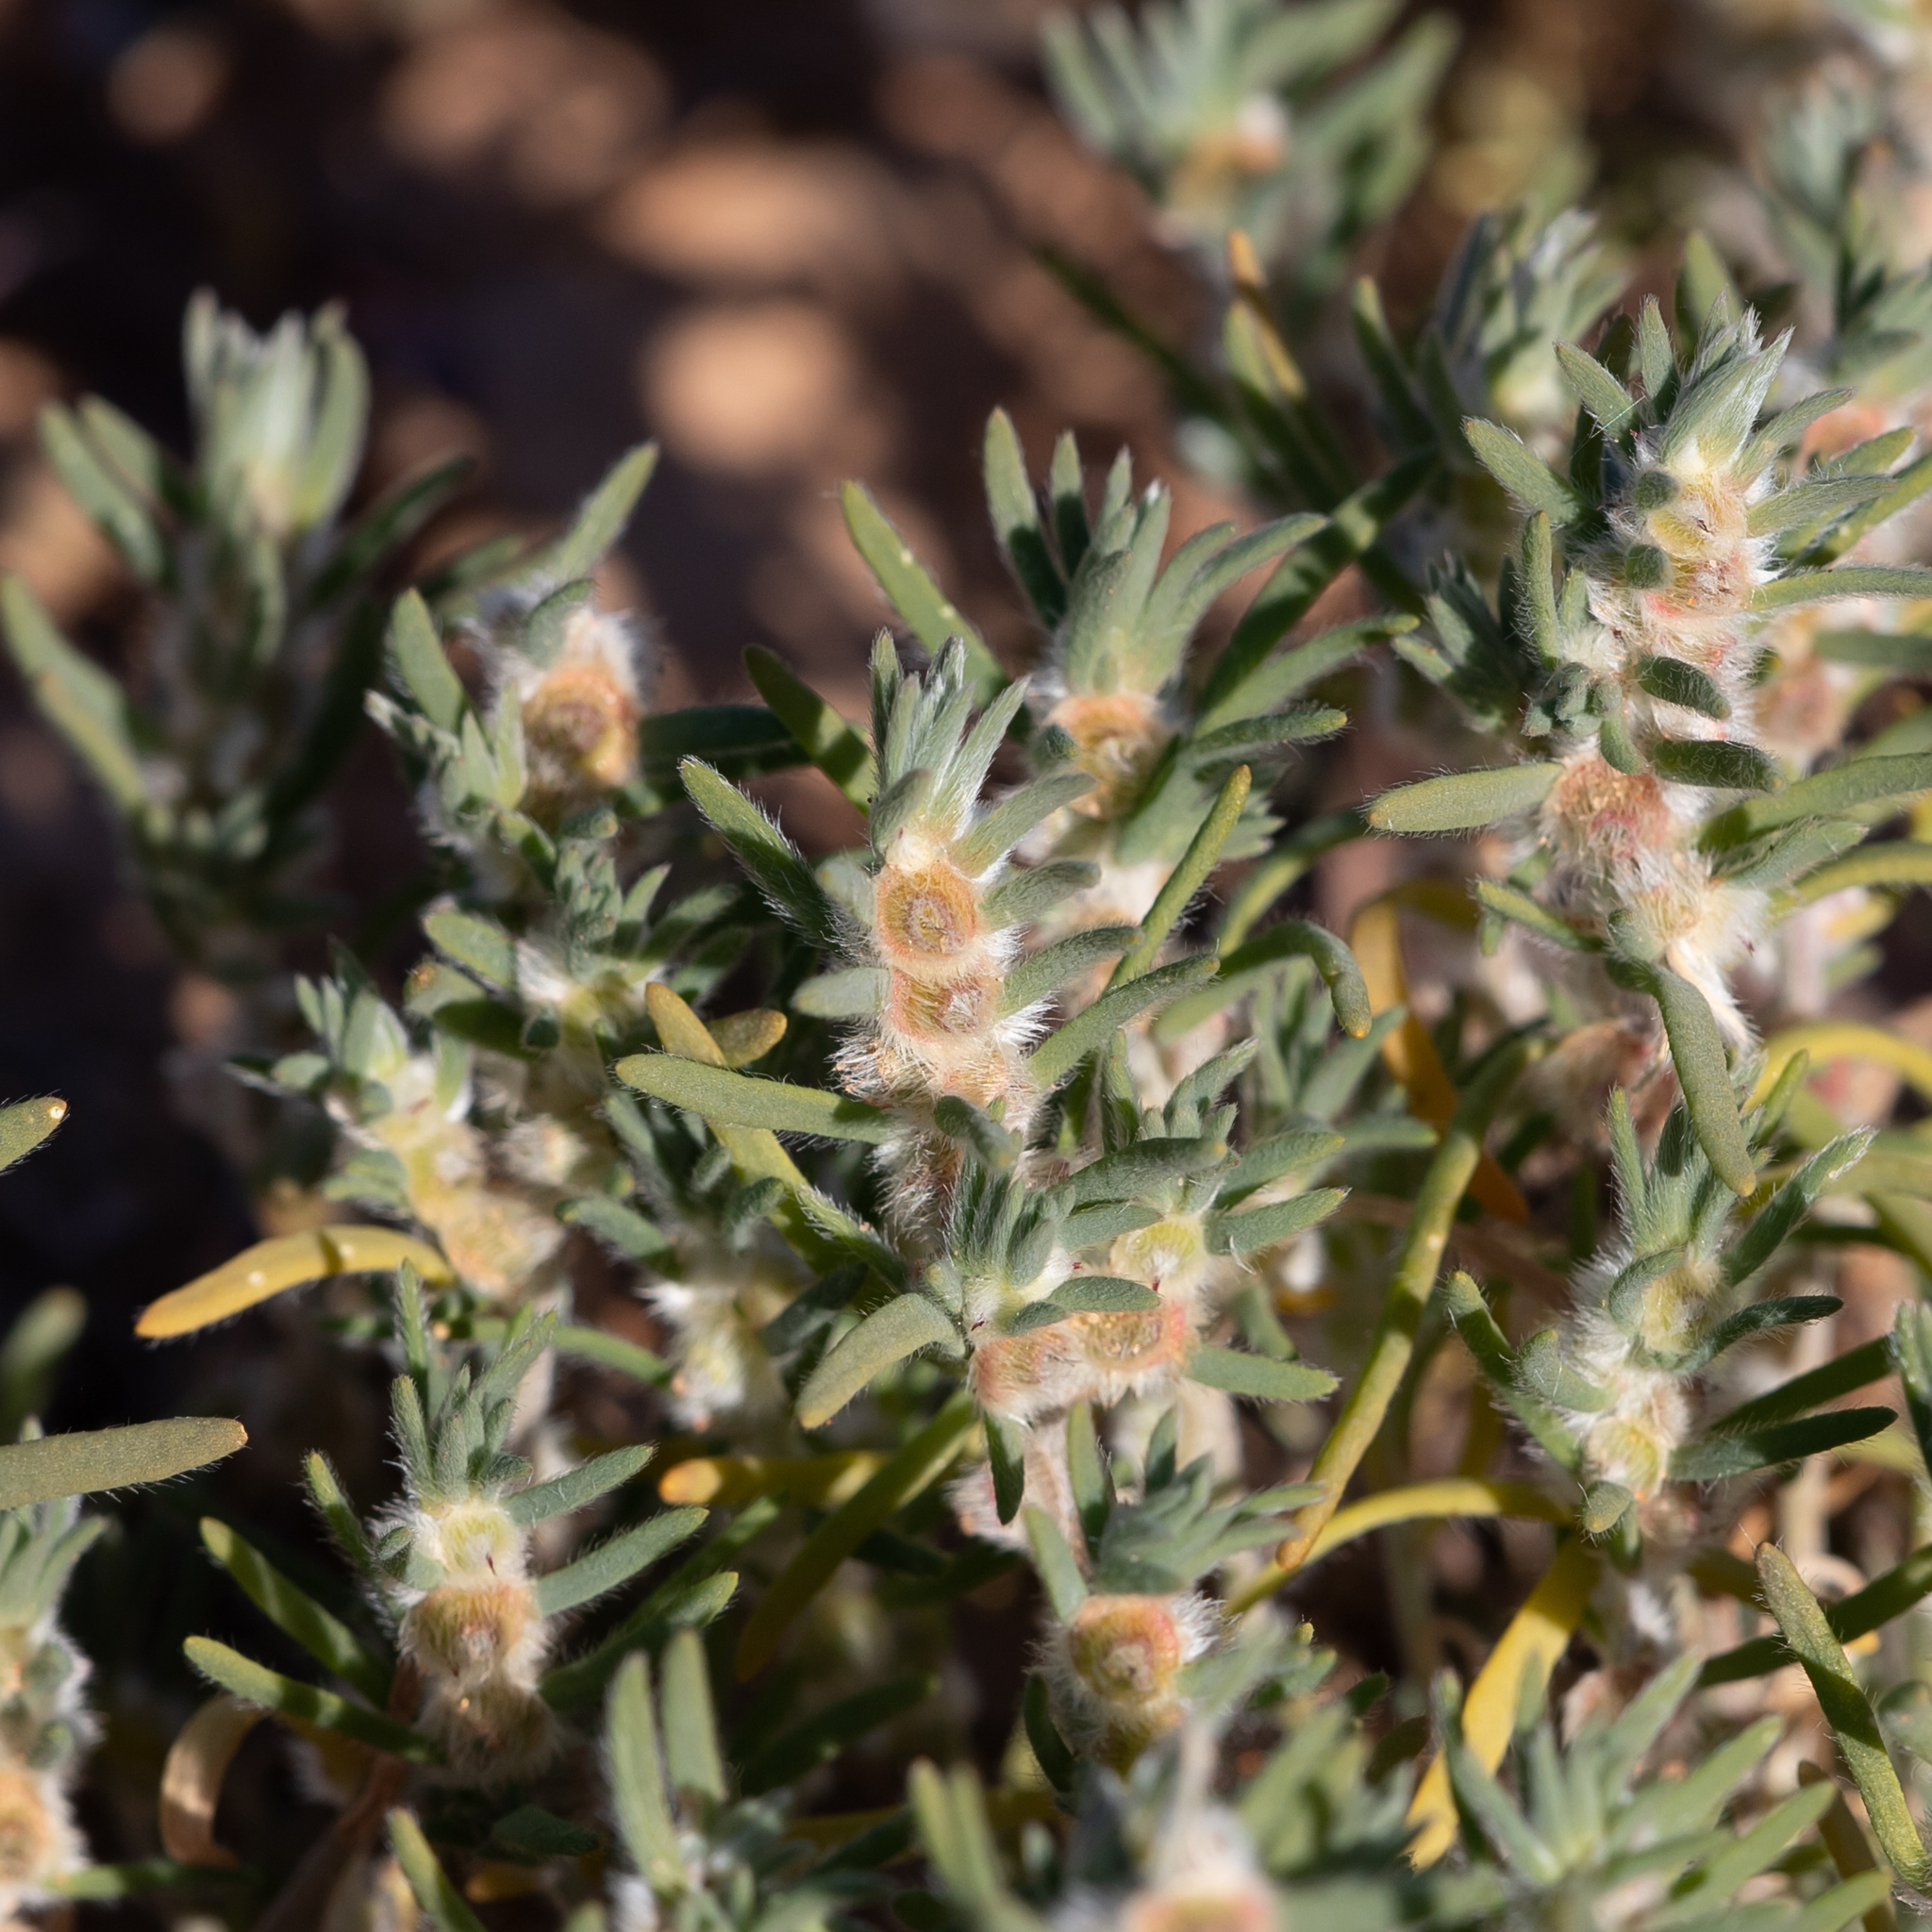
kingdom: Plantae
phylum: Tracheophyta
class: Magnoliopsida
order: Caryophyllales
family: Amaranthaceae
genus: Maireana
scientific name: Maireana coronata
